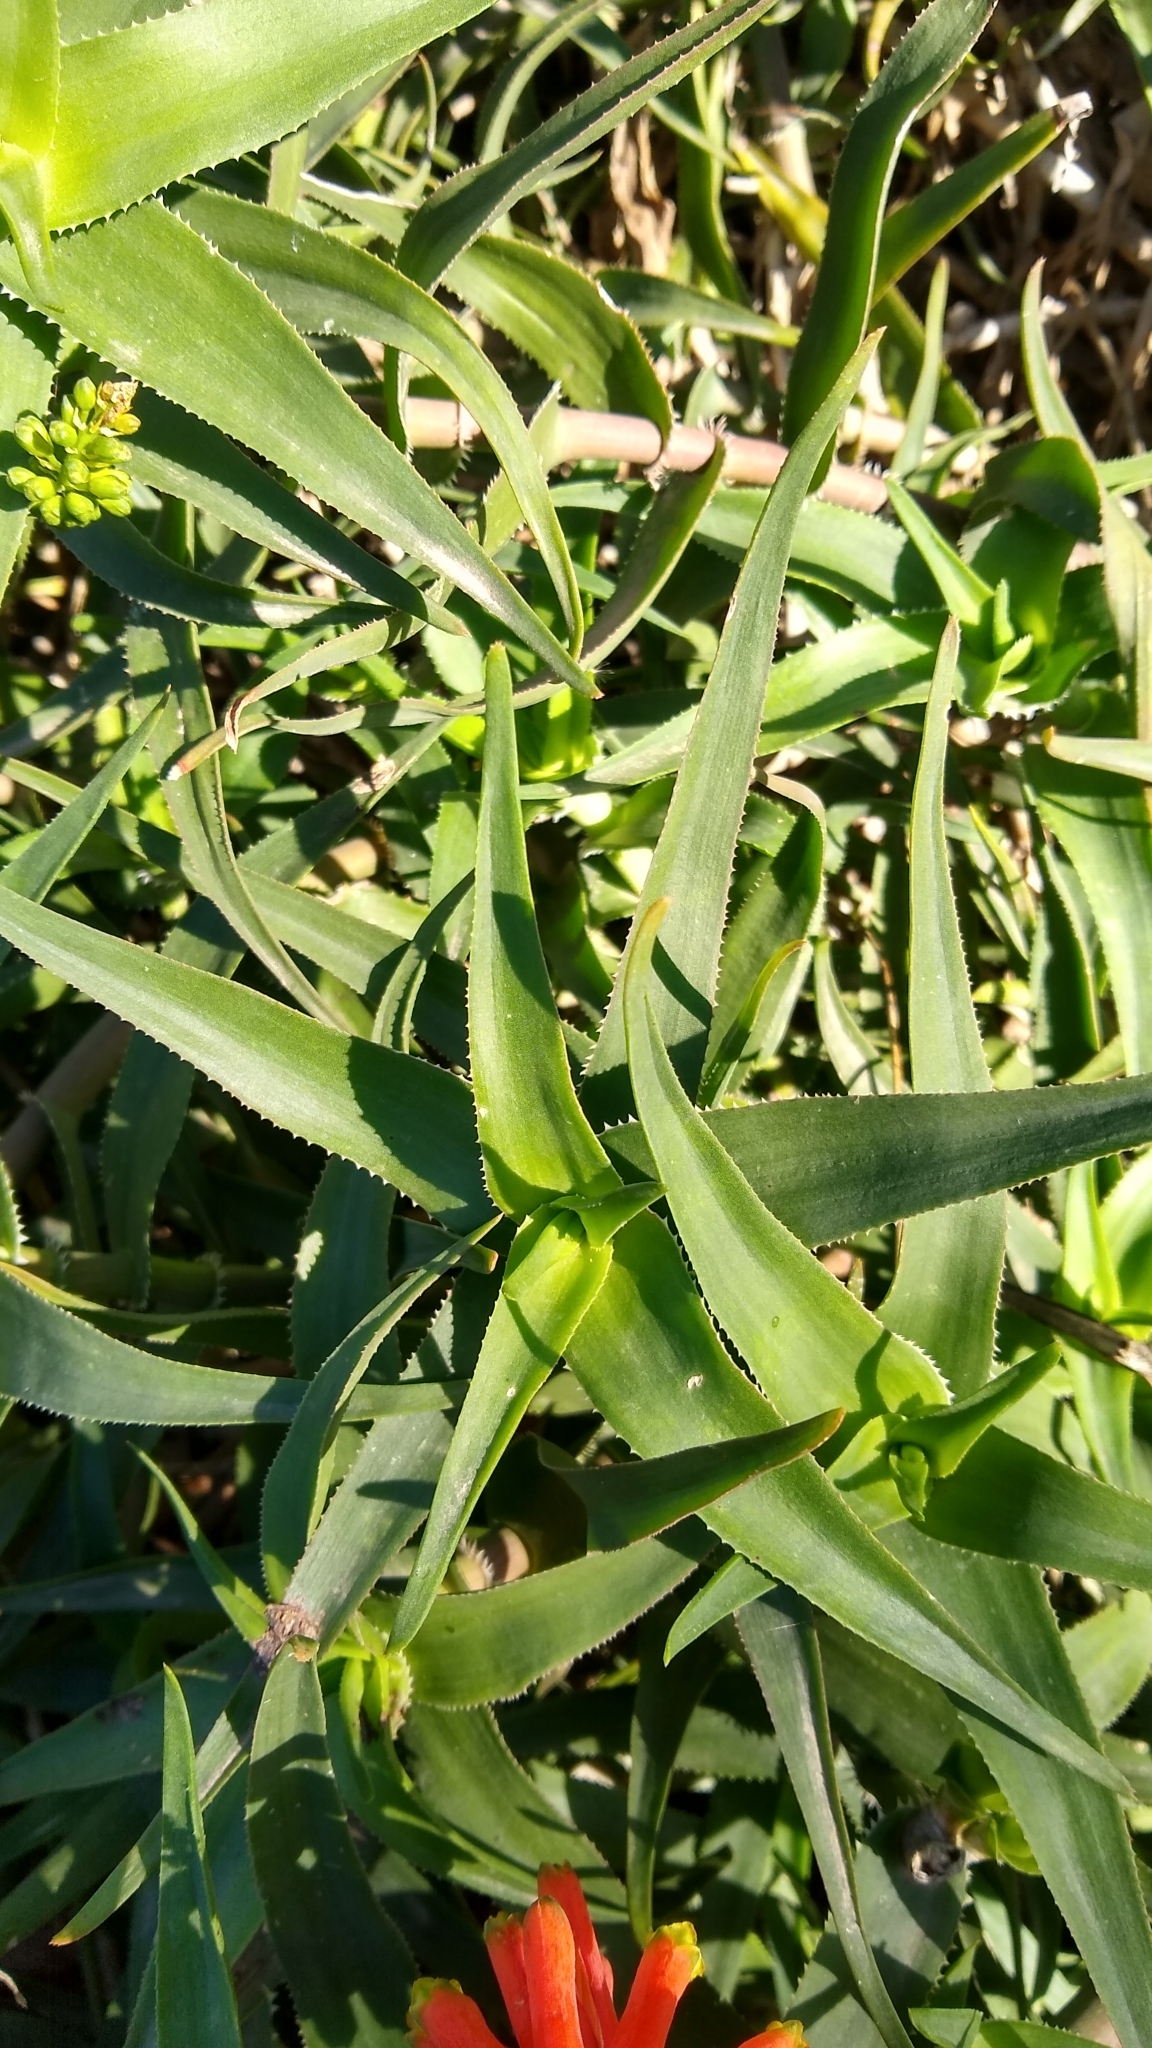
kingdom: Plantae
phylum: Tracheophyta
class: Liliopsida
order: Asparagales
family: Asphodelaceae
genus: Aloiampelos
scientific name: Aloiampelos ciliaris
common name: Climbing aloe
